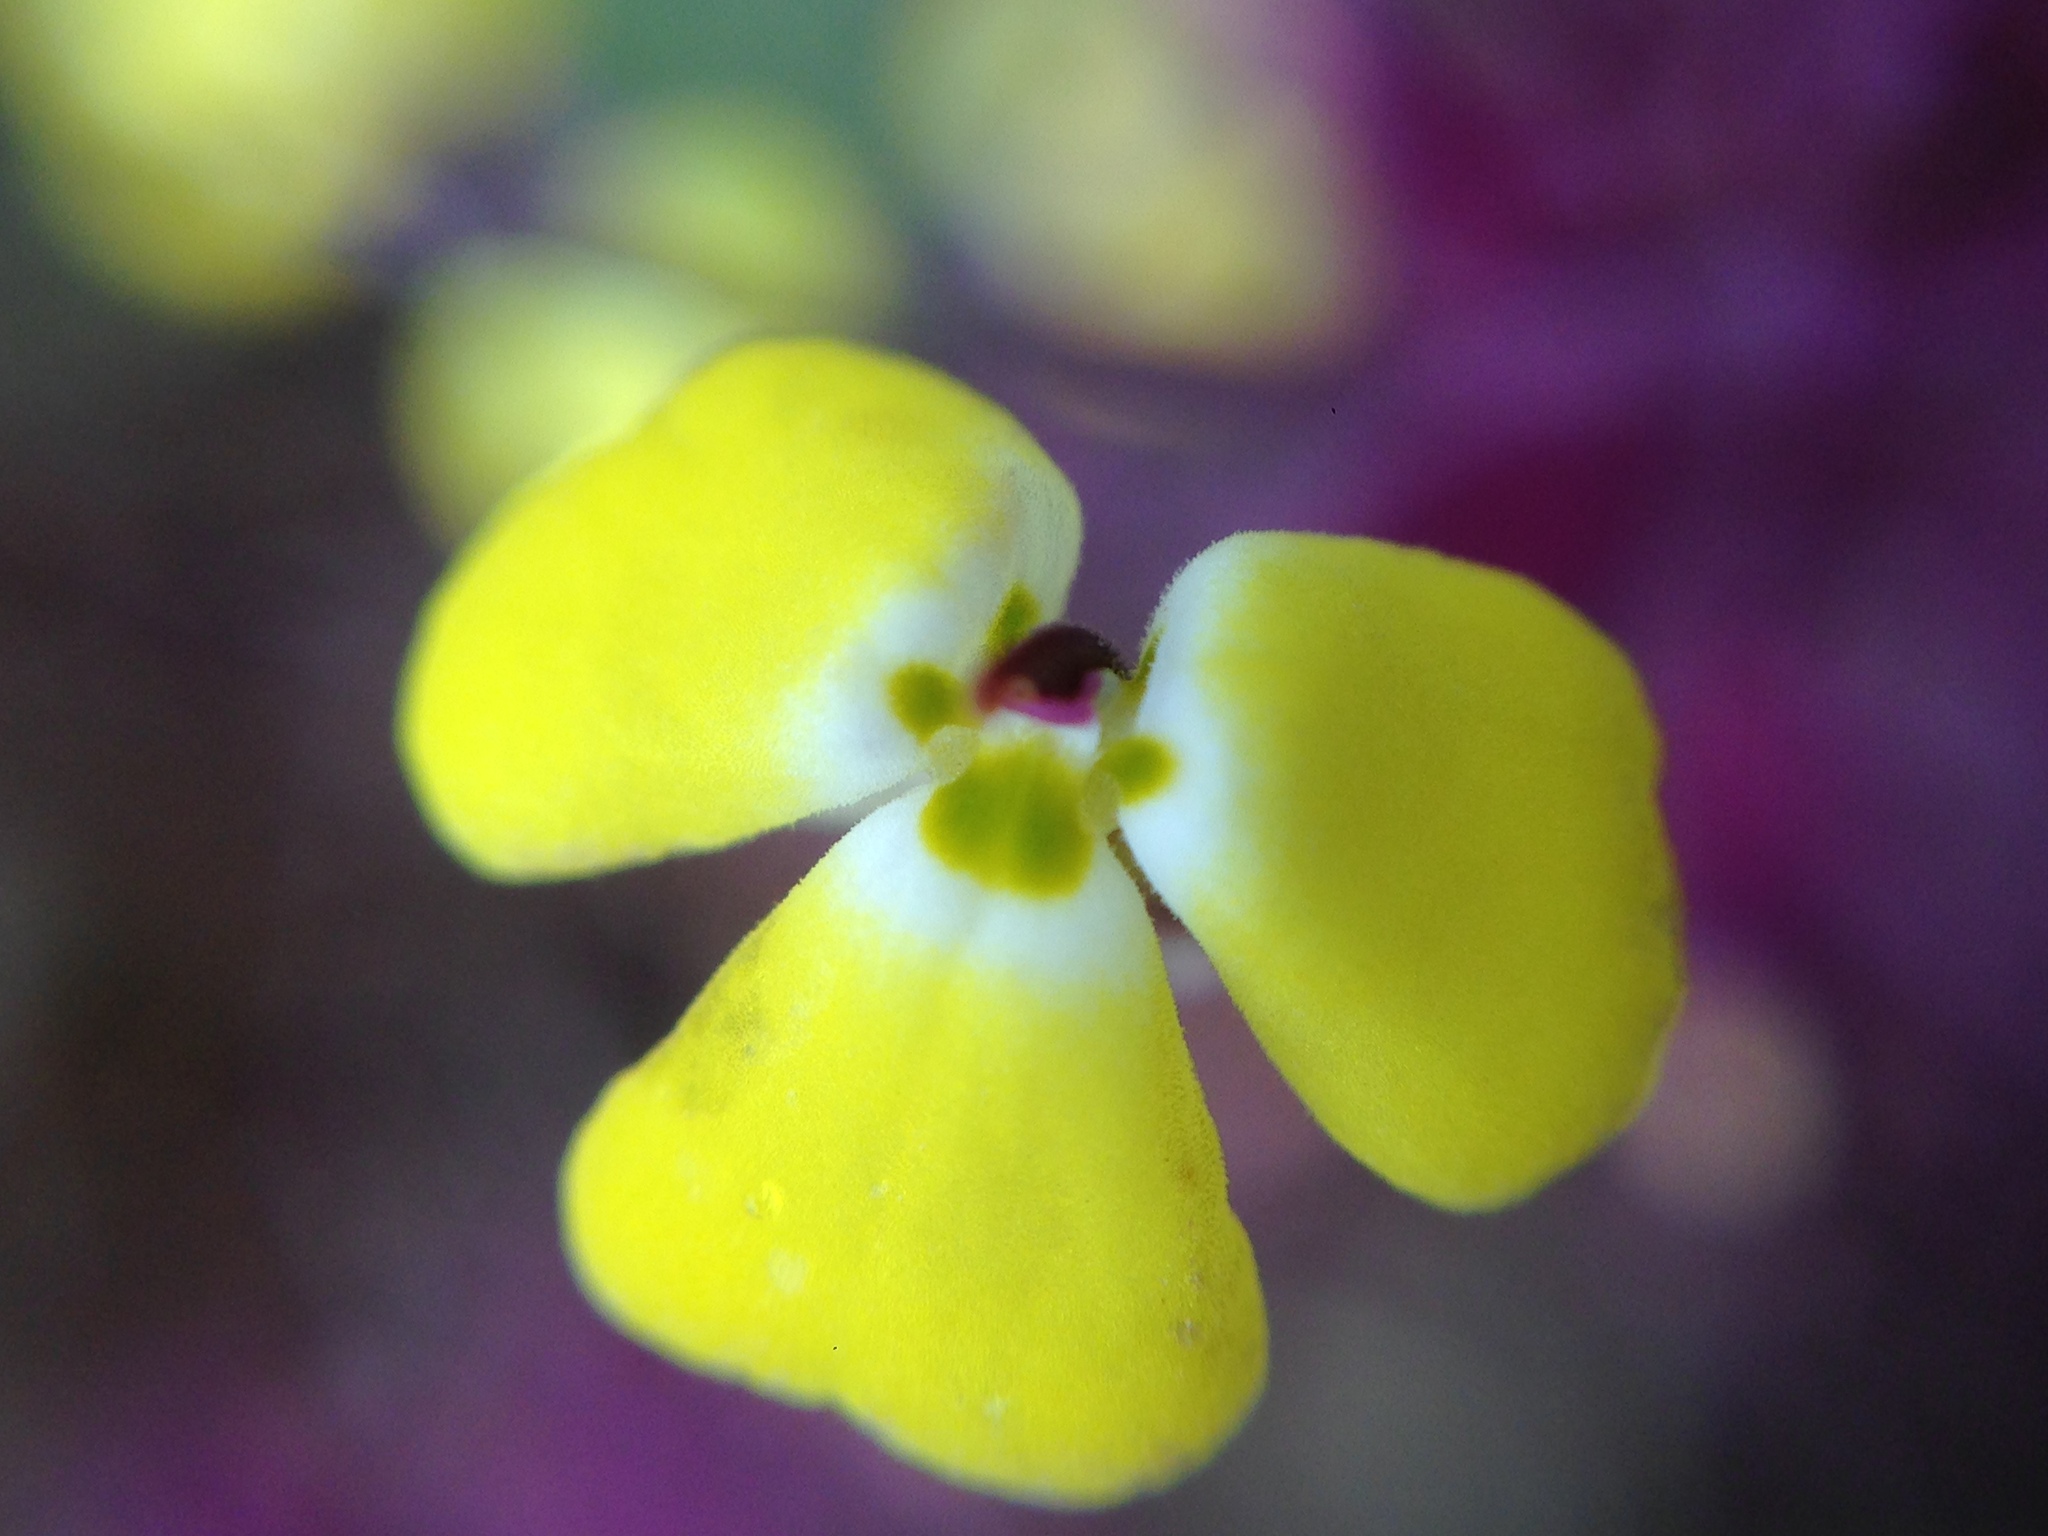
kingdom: Plantae
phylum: Tracheophyta
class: Magnoliopsida
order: Lamiales
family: Orobanchaceae
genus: Triphysaria
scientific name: Triphysaria eriantha
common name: Johnny-tuck
